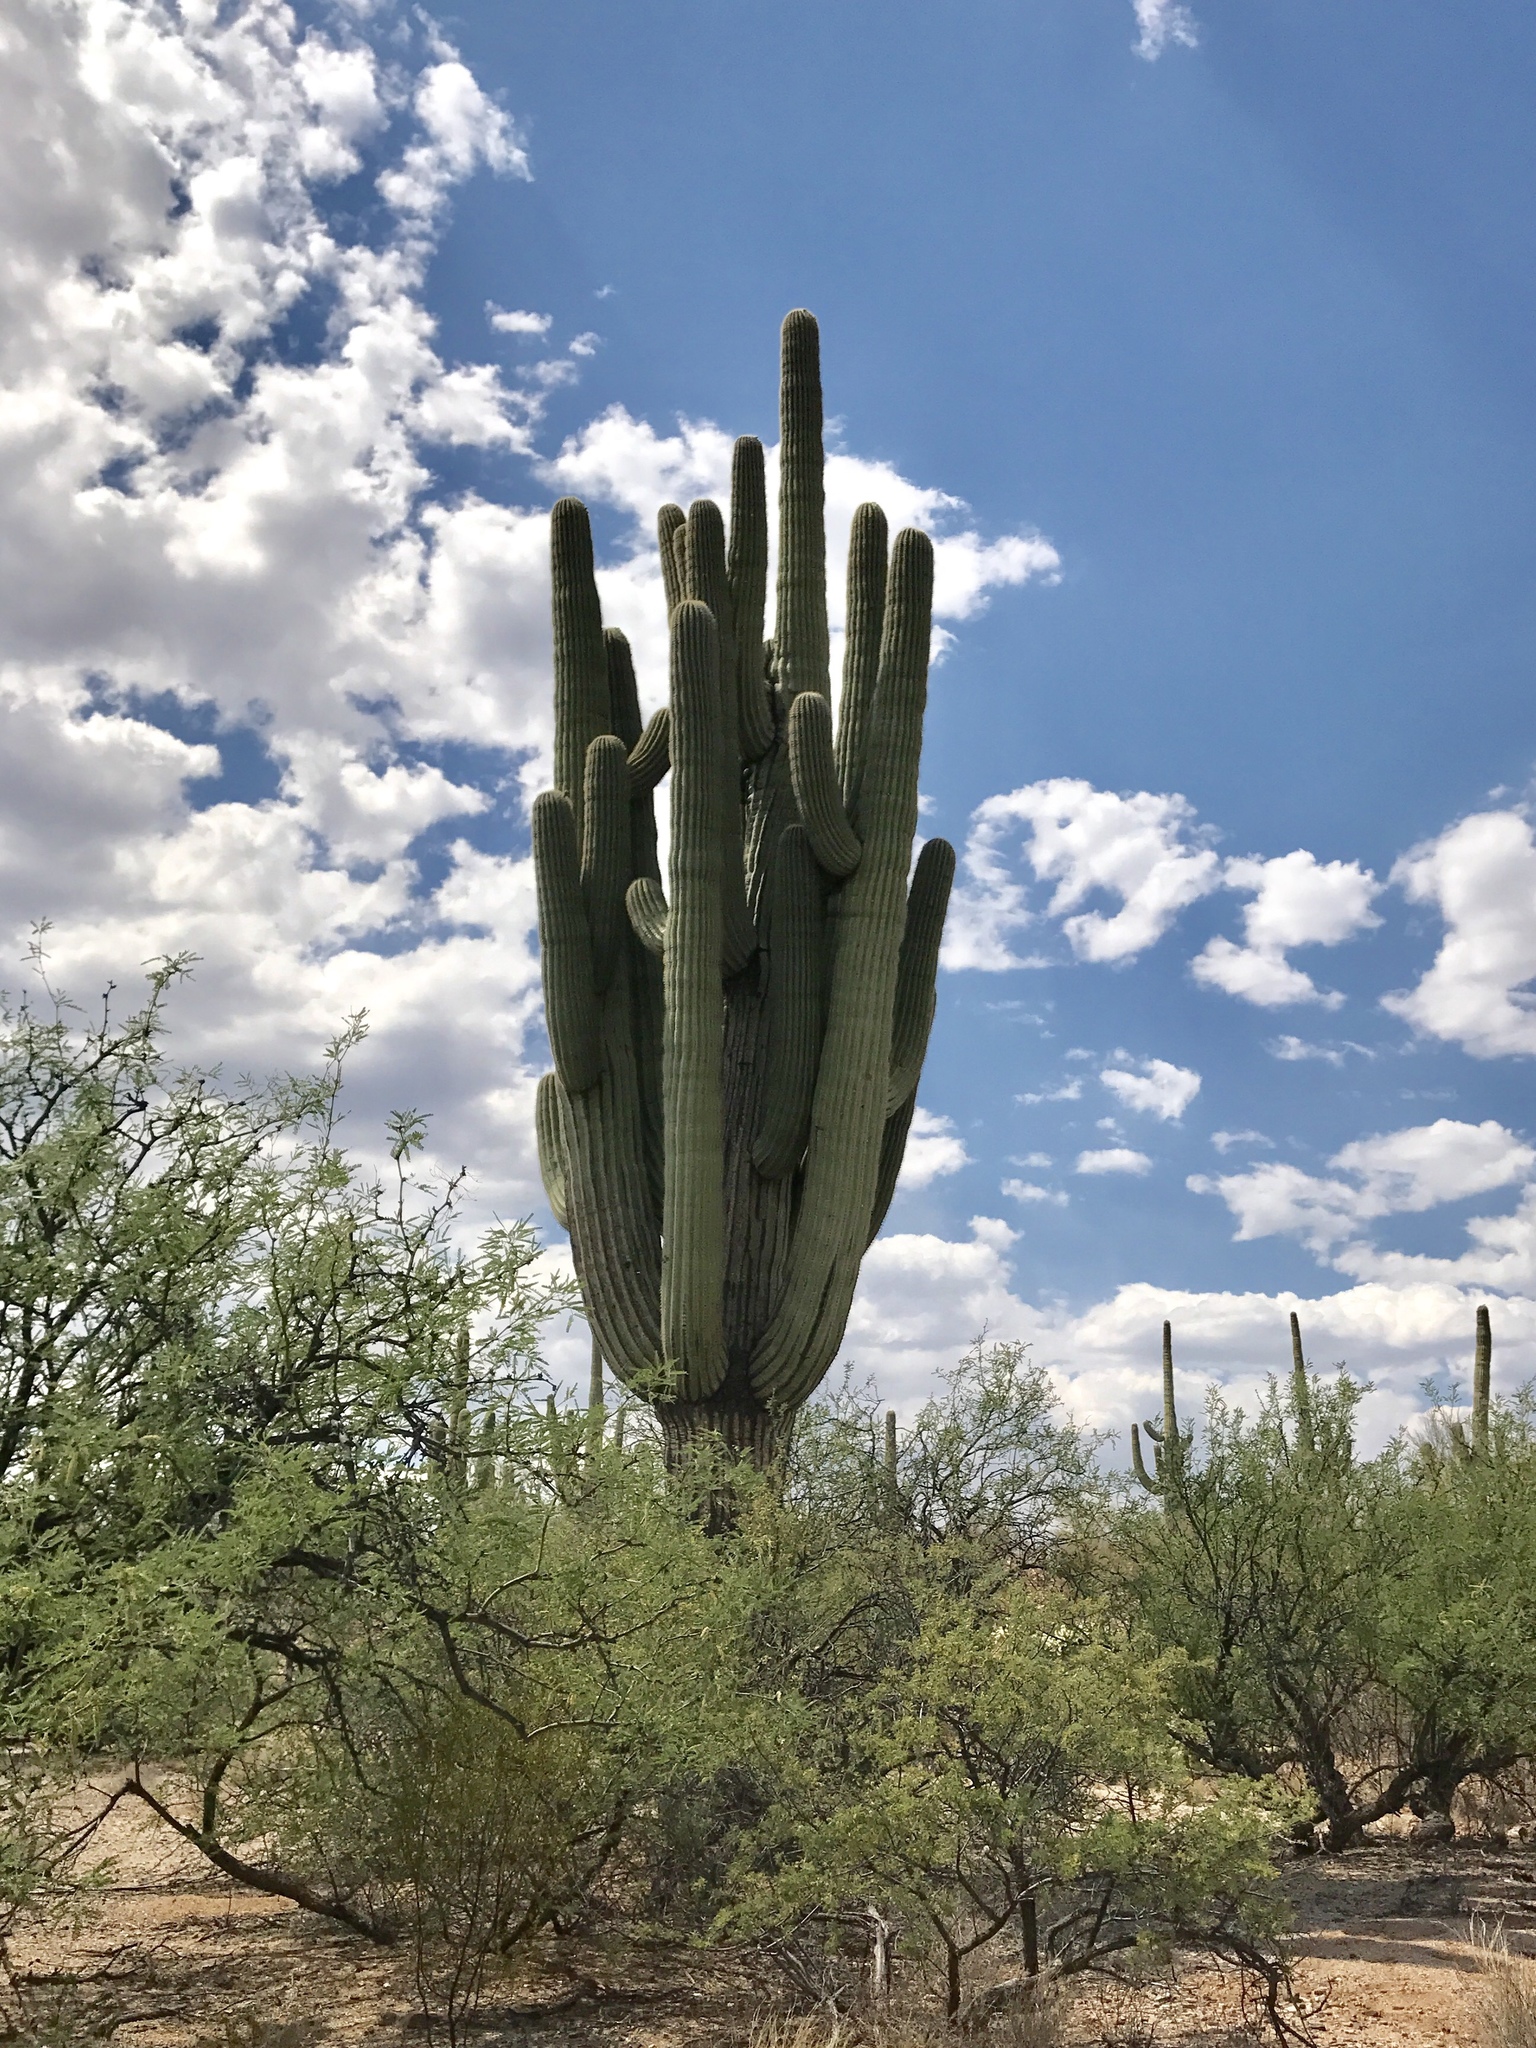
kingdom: Plantae
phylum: Tracheophyta
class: Magnoliopsida
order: Caryophyllales
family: Cactaceae
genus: Carnegiea
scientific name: Carnegiea gigantea
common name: Saguaro
